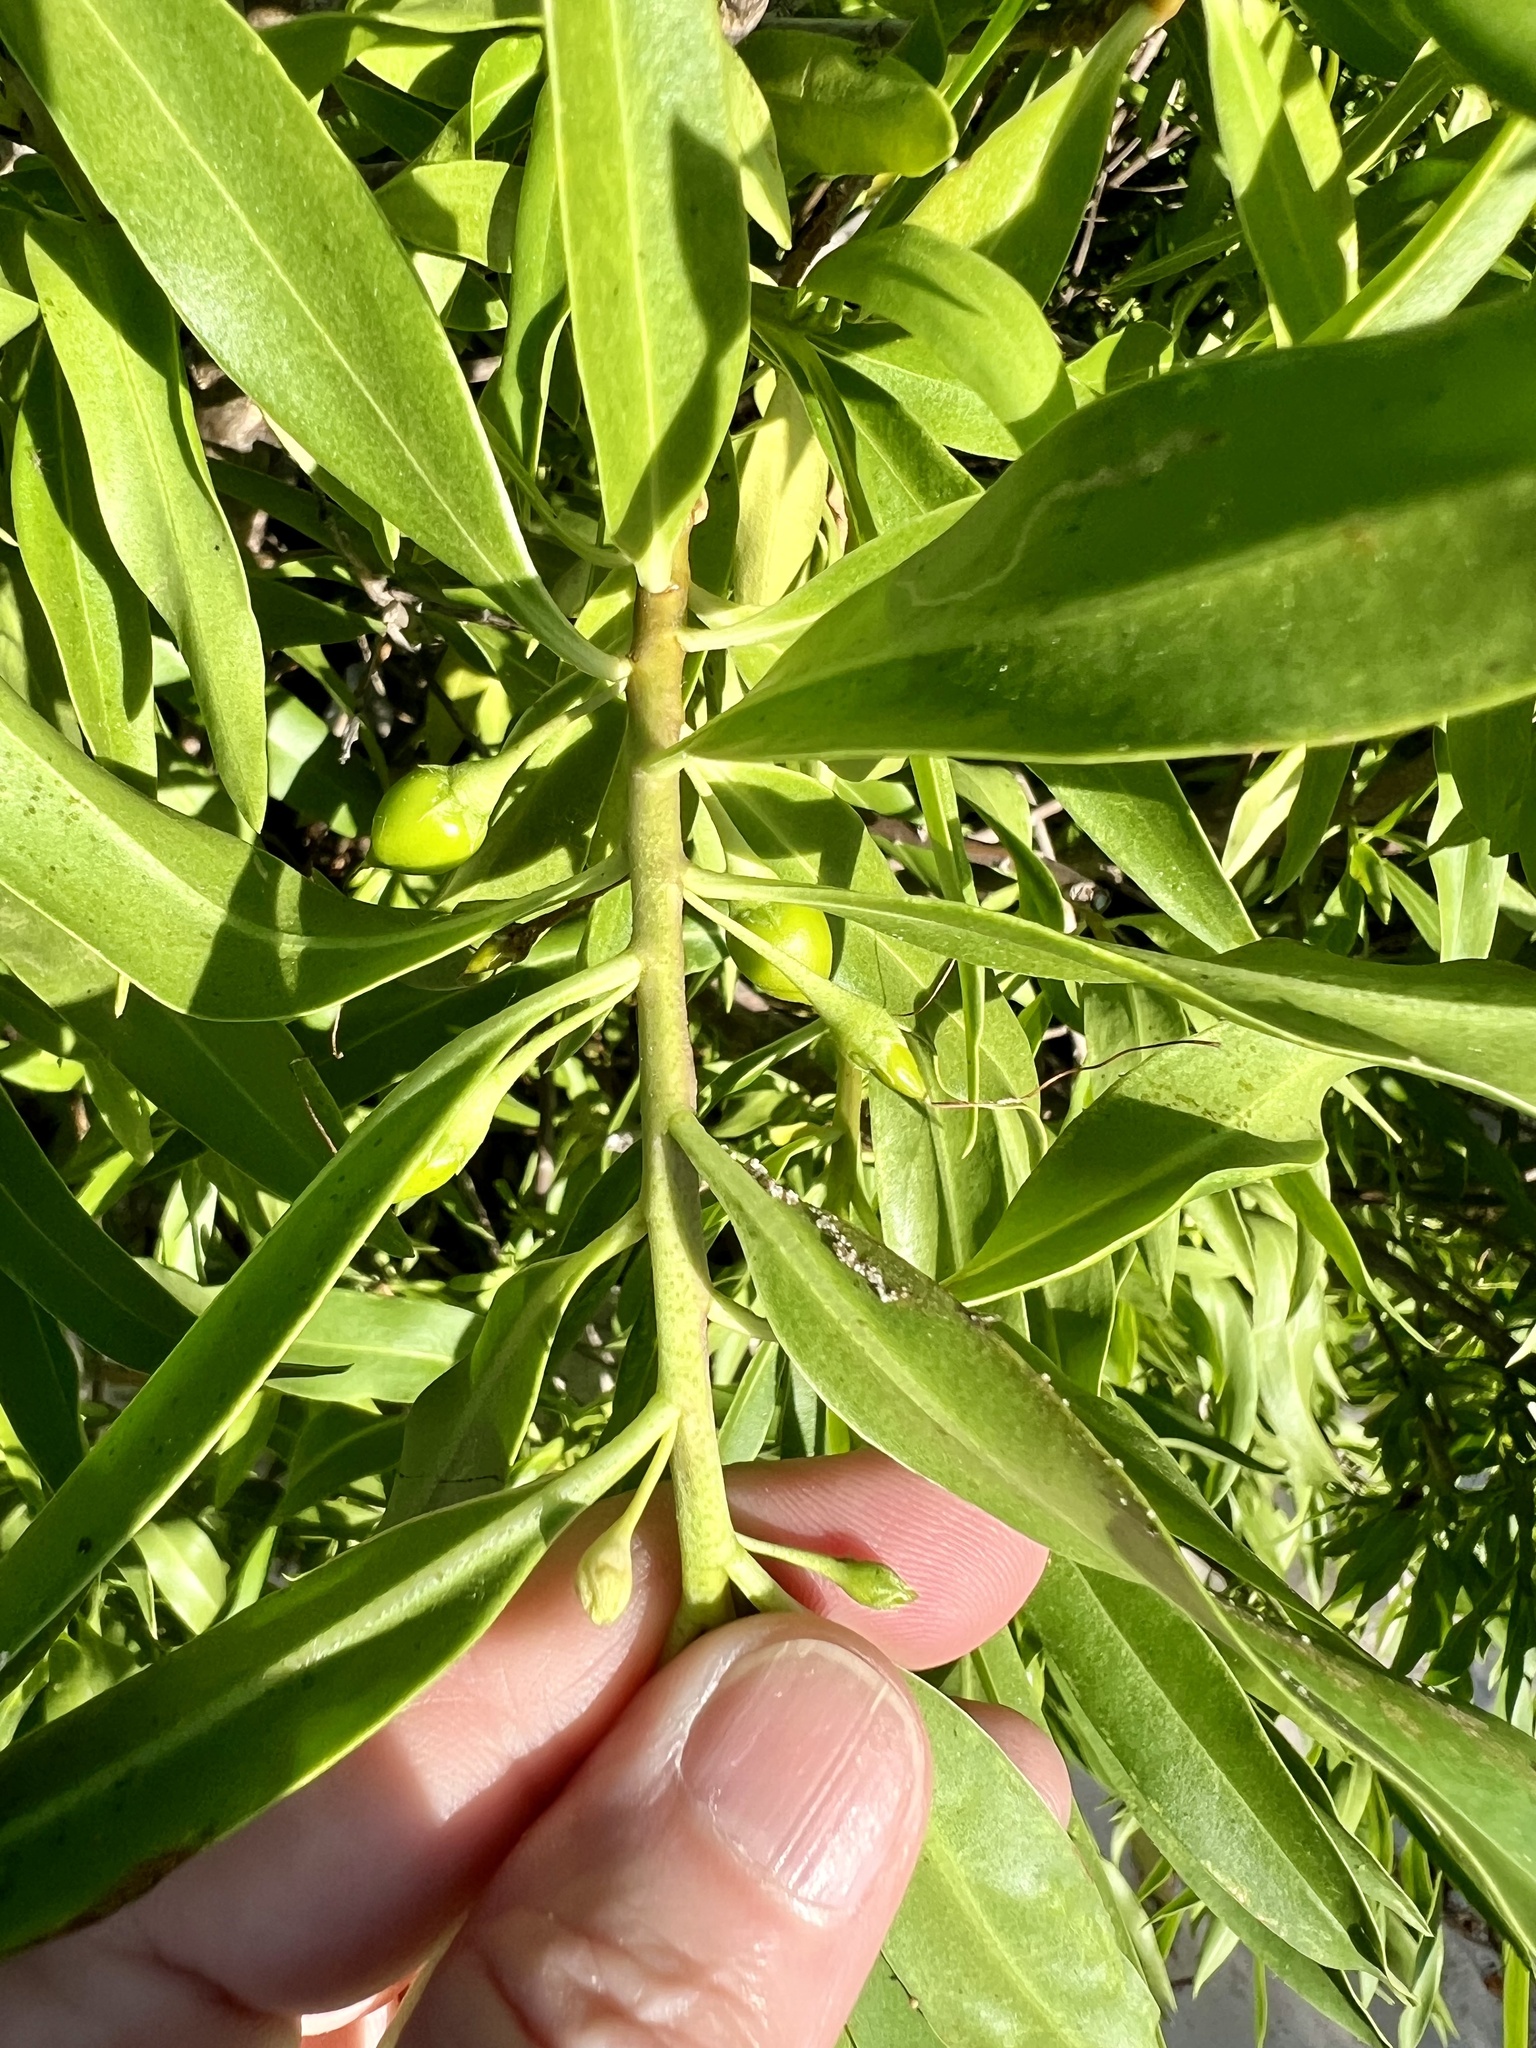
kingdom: Plantae
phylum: Tracheophyta
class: Magnoliopsida
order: Lamiales
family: Scrophulariaceae
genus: Bontia
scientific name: Bontia daphnoides
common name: Wild olive
